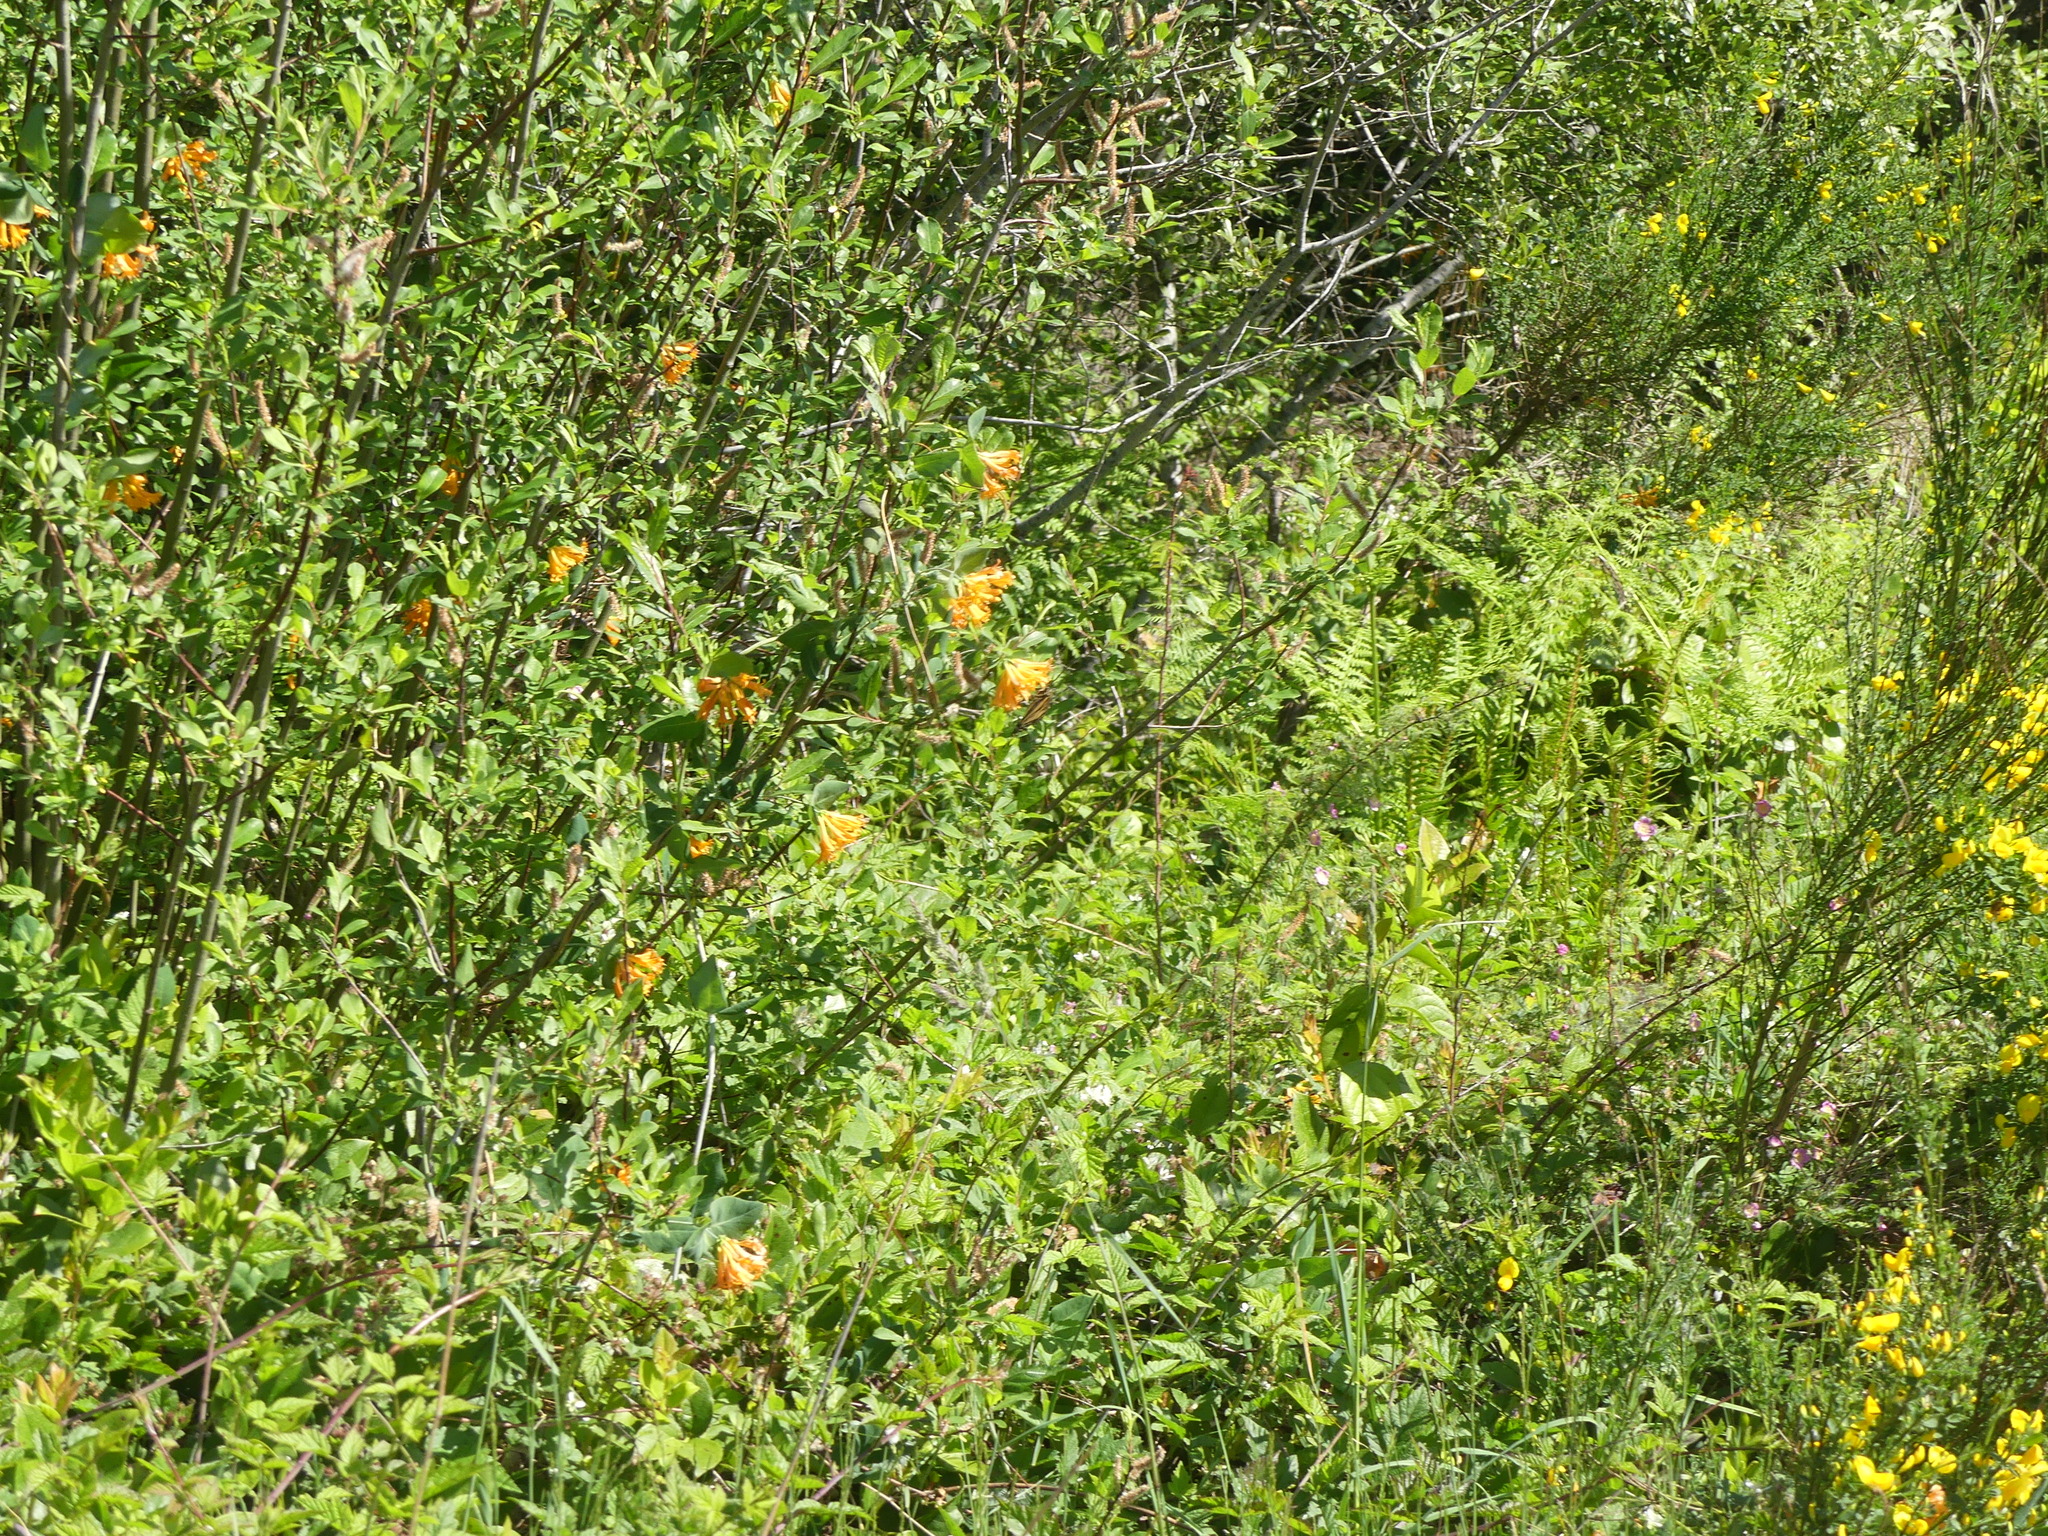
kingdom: Plantae
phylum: Tracheophyta
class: Magnoliopsida
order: Dipsacales
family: Caprifoliaceae
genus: Lonicera
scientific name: Lonicera ciliosa
